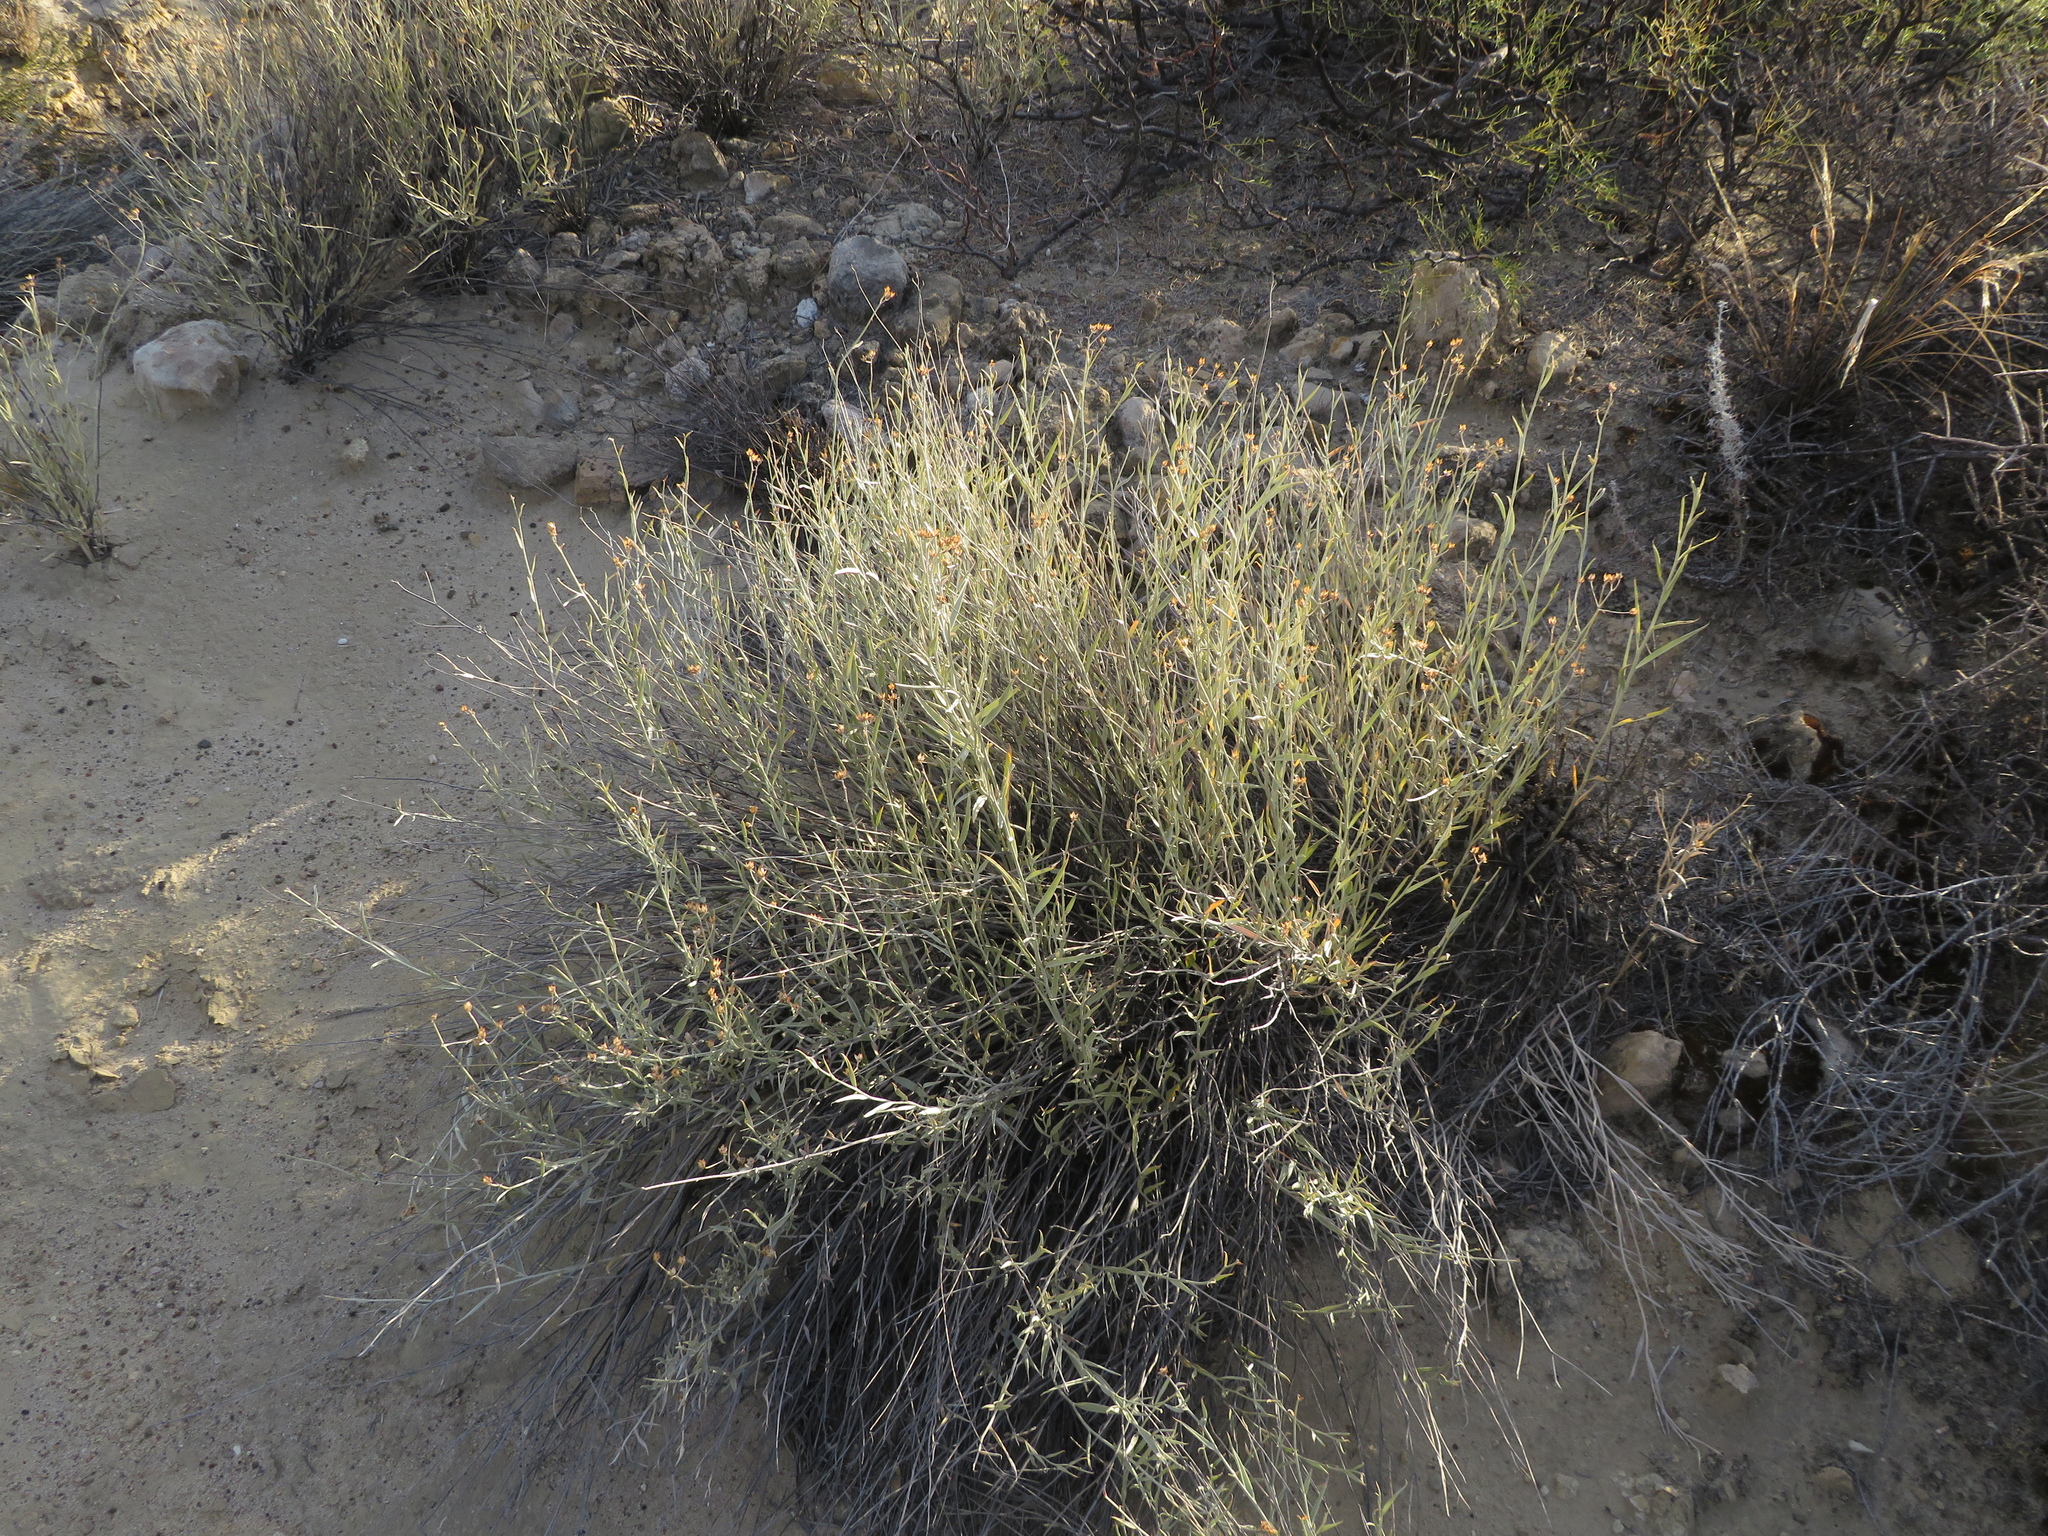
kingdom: Plantae
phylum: Tracheophyta
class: Magnoliopsida
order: Asterales
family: Asteraceae
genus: Hyalis
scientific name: Hyalis argentea
